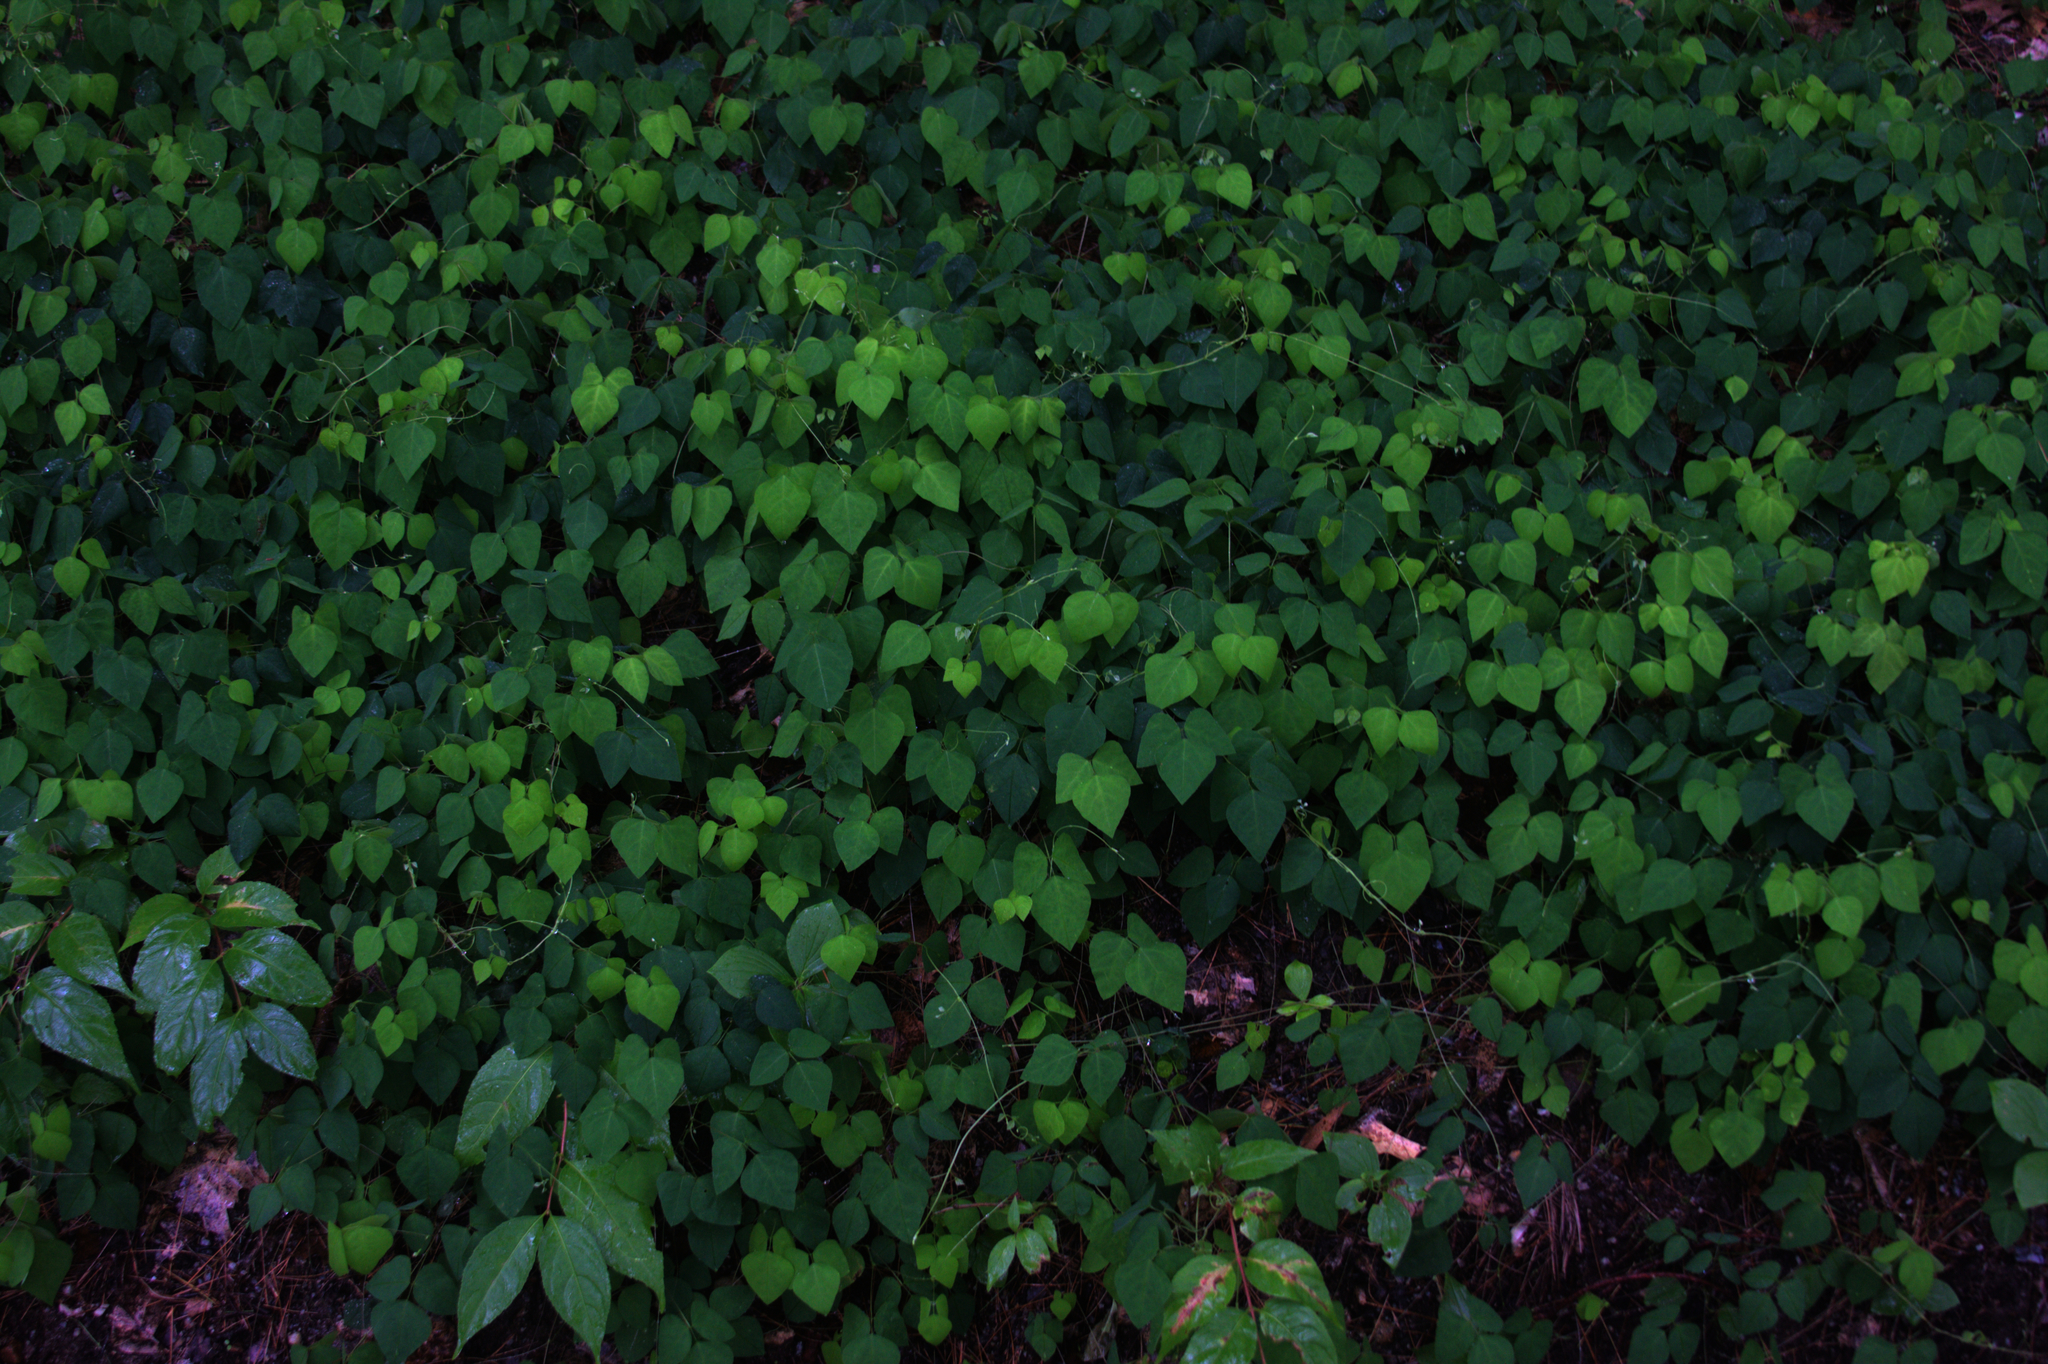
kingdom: Plantae
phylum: Tracheophyta
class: Magnoliopsida
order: Fabales
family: Fabaceae
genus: Amphicarpaea
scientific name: Amphicarpaea bracteata
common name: American hog peanut
